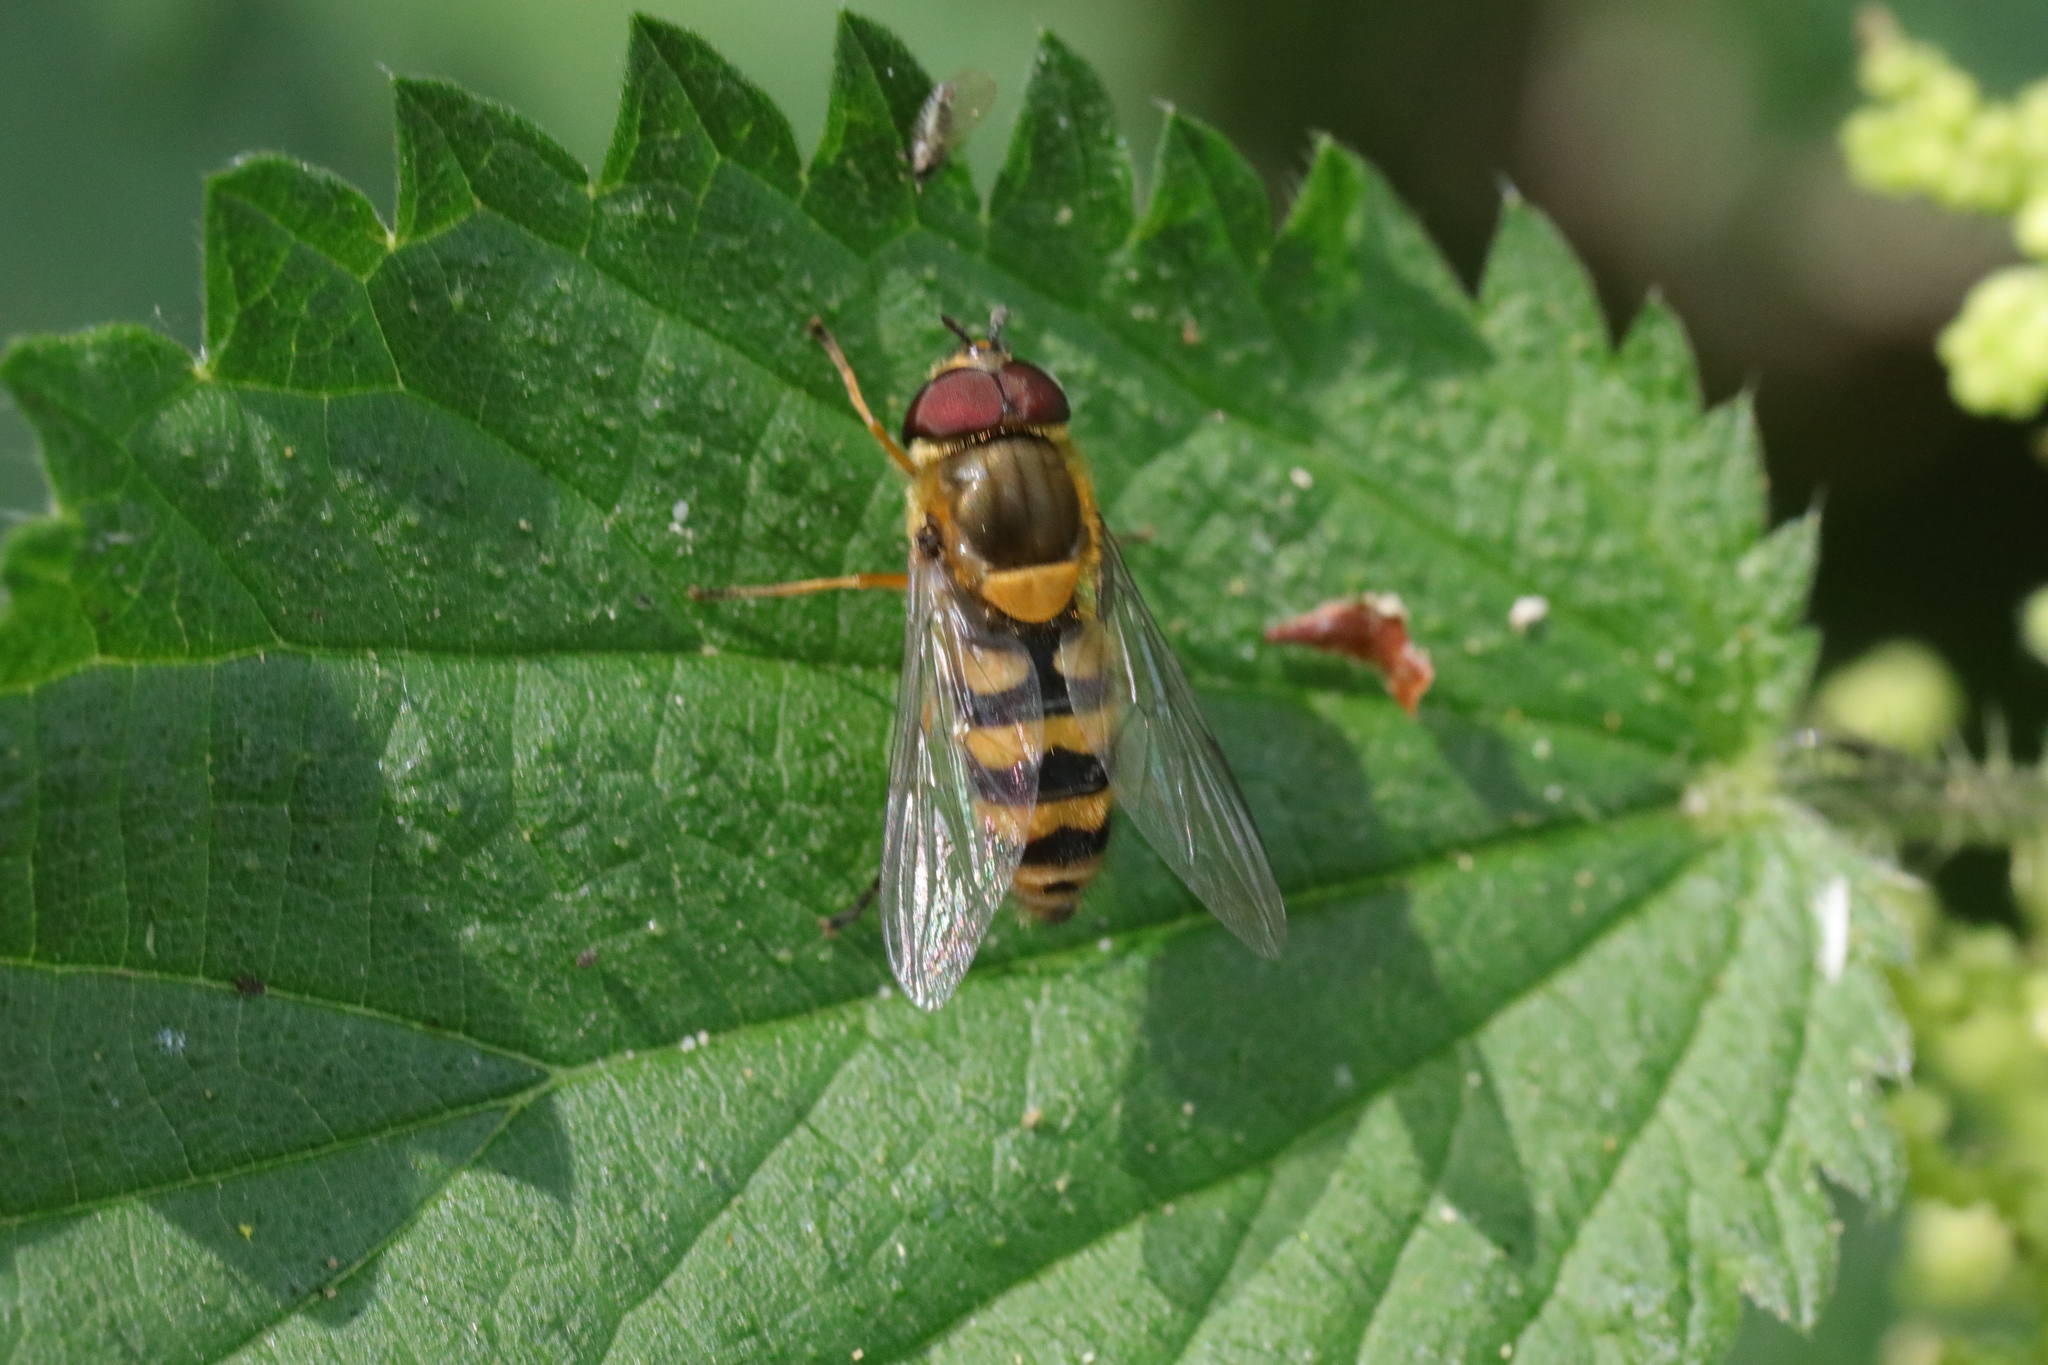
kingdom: Animalia
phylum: Arthropoda
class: Insecta
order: Diptera
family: Syrphidae
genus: Syrphus
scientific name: Syrphus
